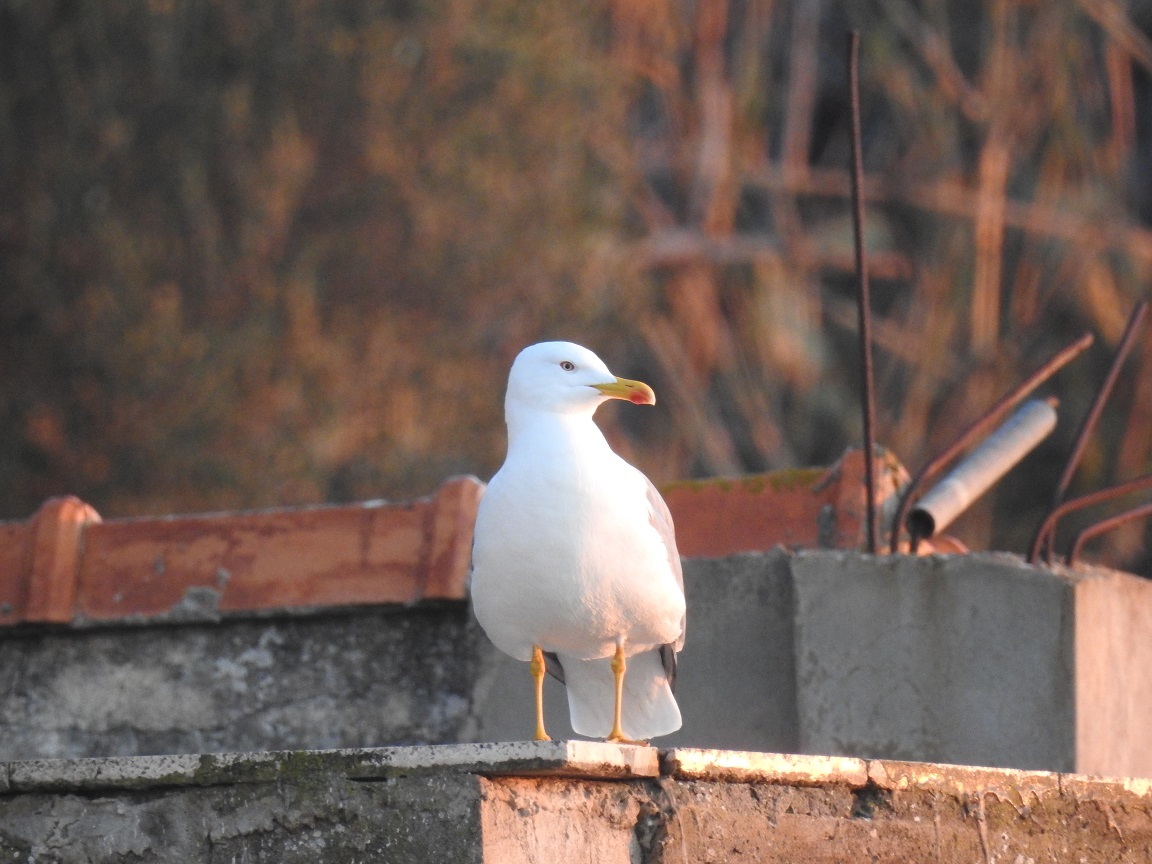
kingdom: Animalia
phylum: Chordata
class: Aves
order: Charadriiformes
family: Laridae
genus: Larus
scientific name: Larus michahellis
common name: Yellow-legged gull
